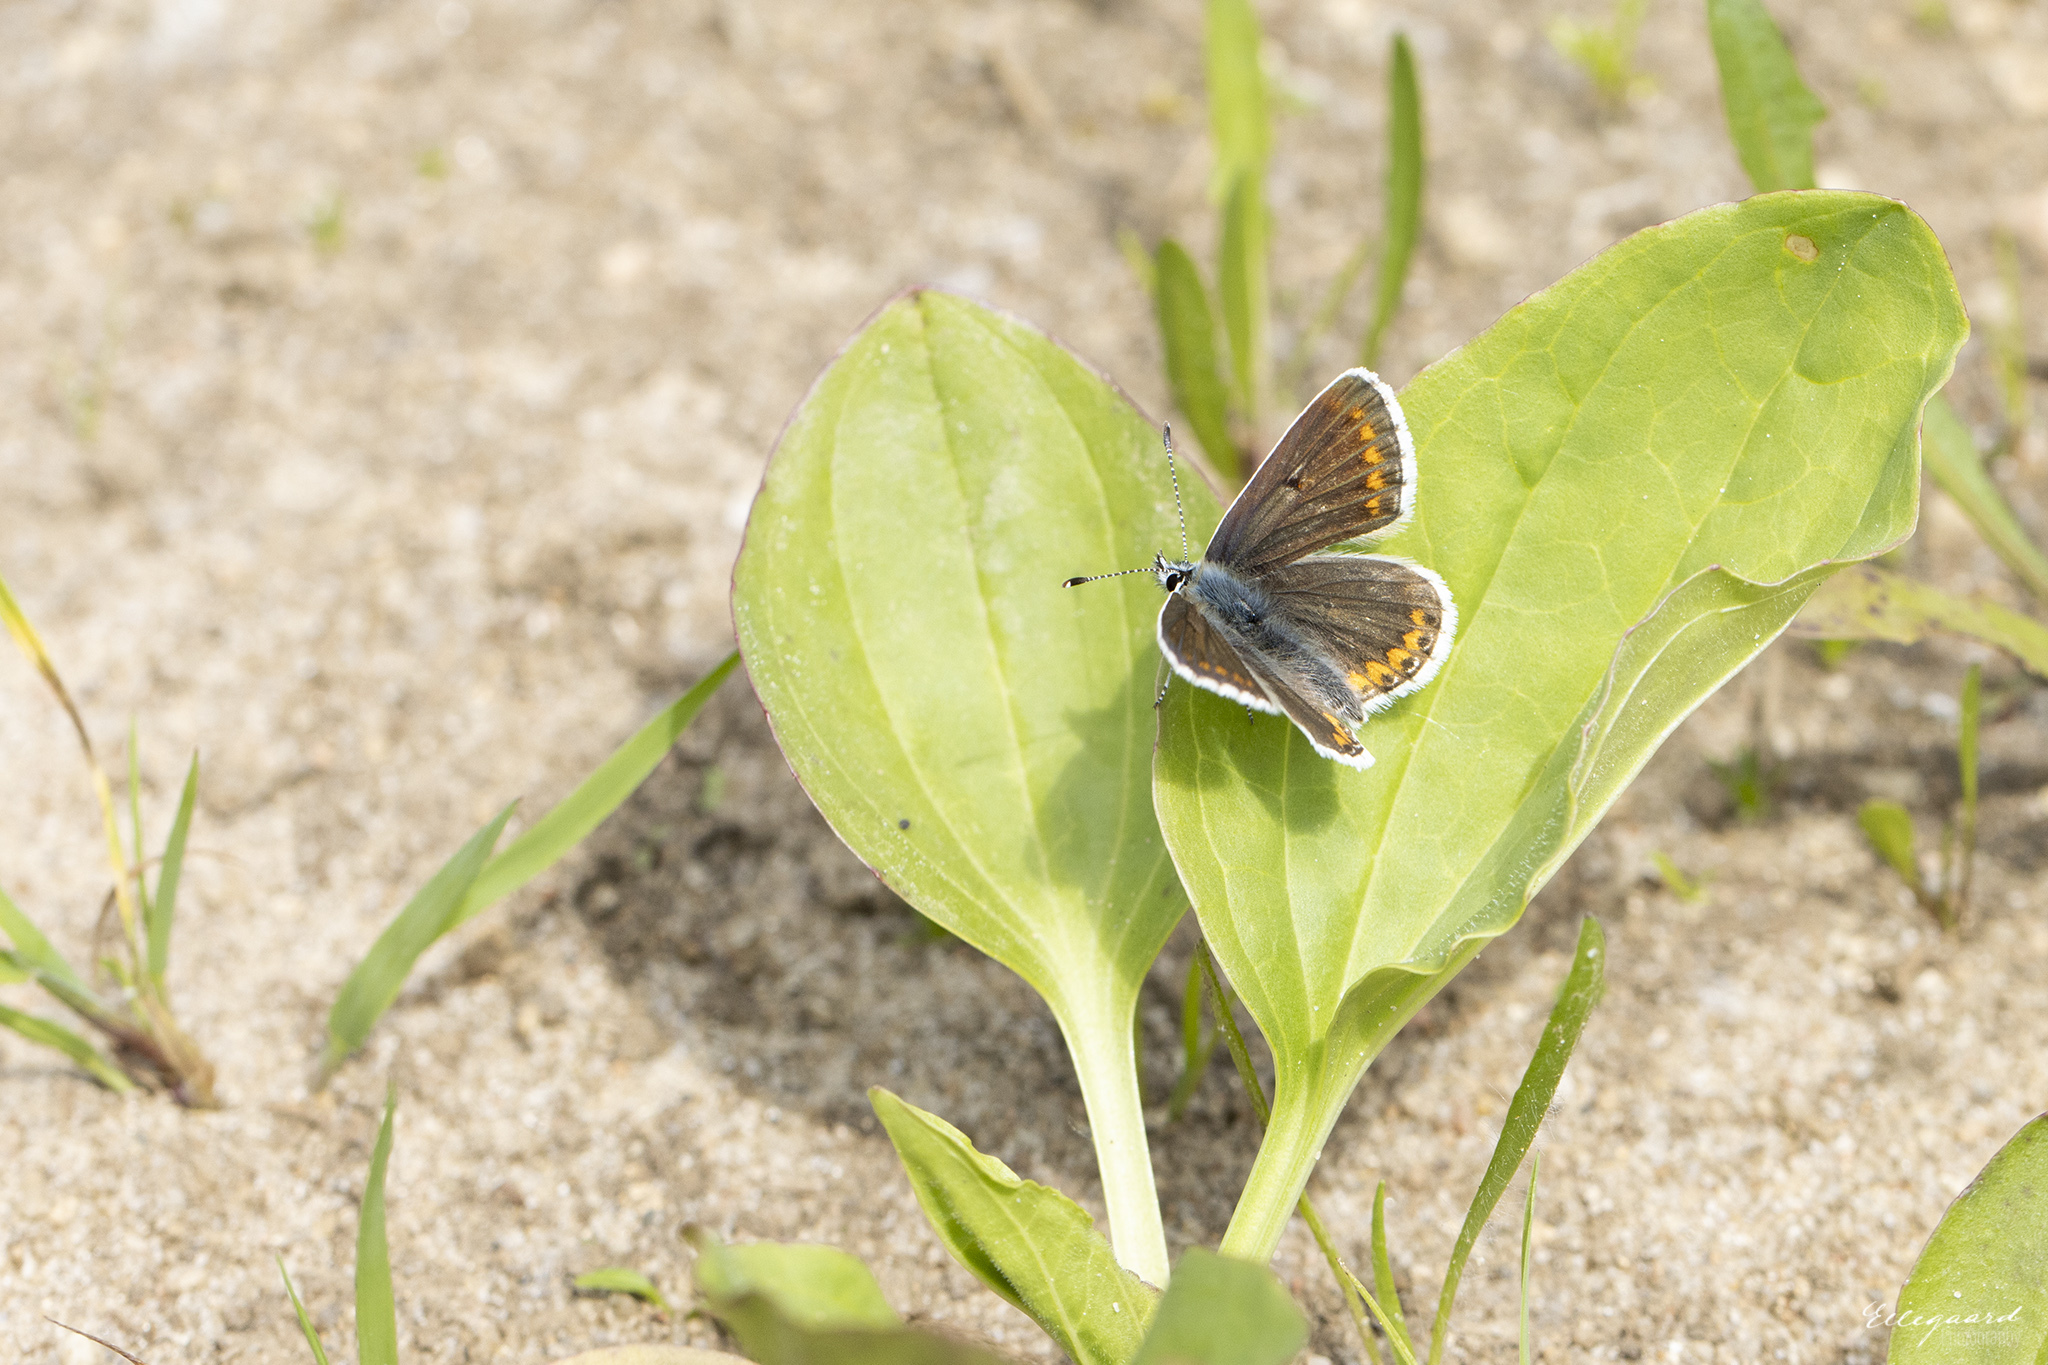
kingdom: Animalia
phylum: Arthropoda
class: Insecta
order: Lepidoptera
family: Lycaenidae
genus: Aricia
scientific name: Aricia agestis
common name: Brown argus
